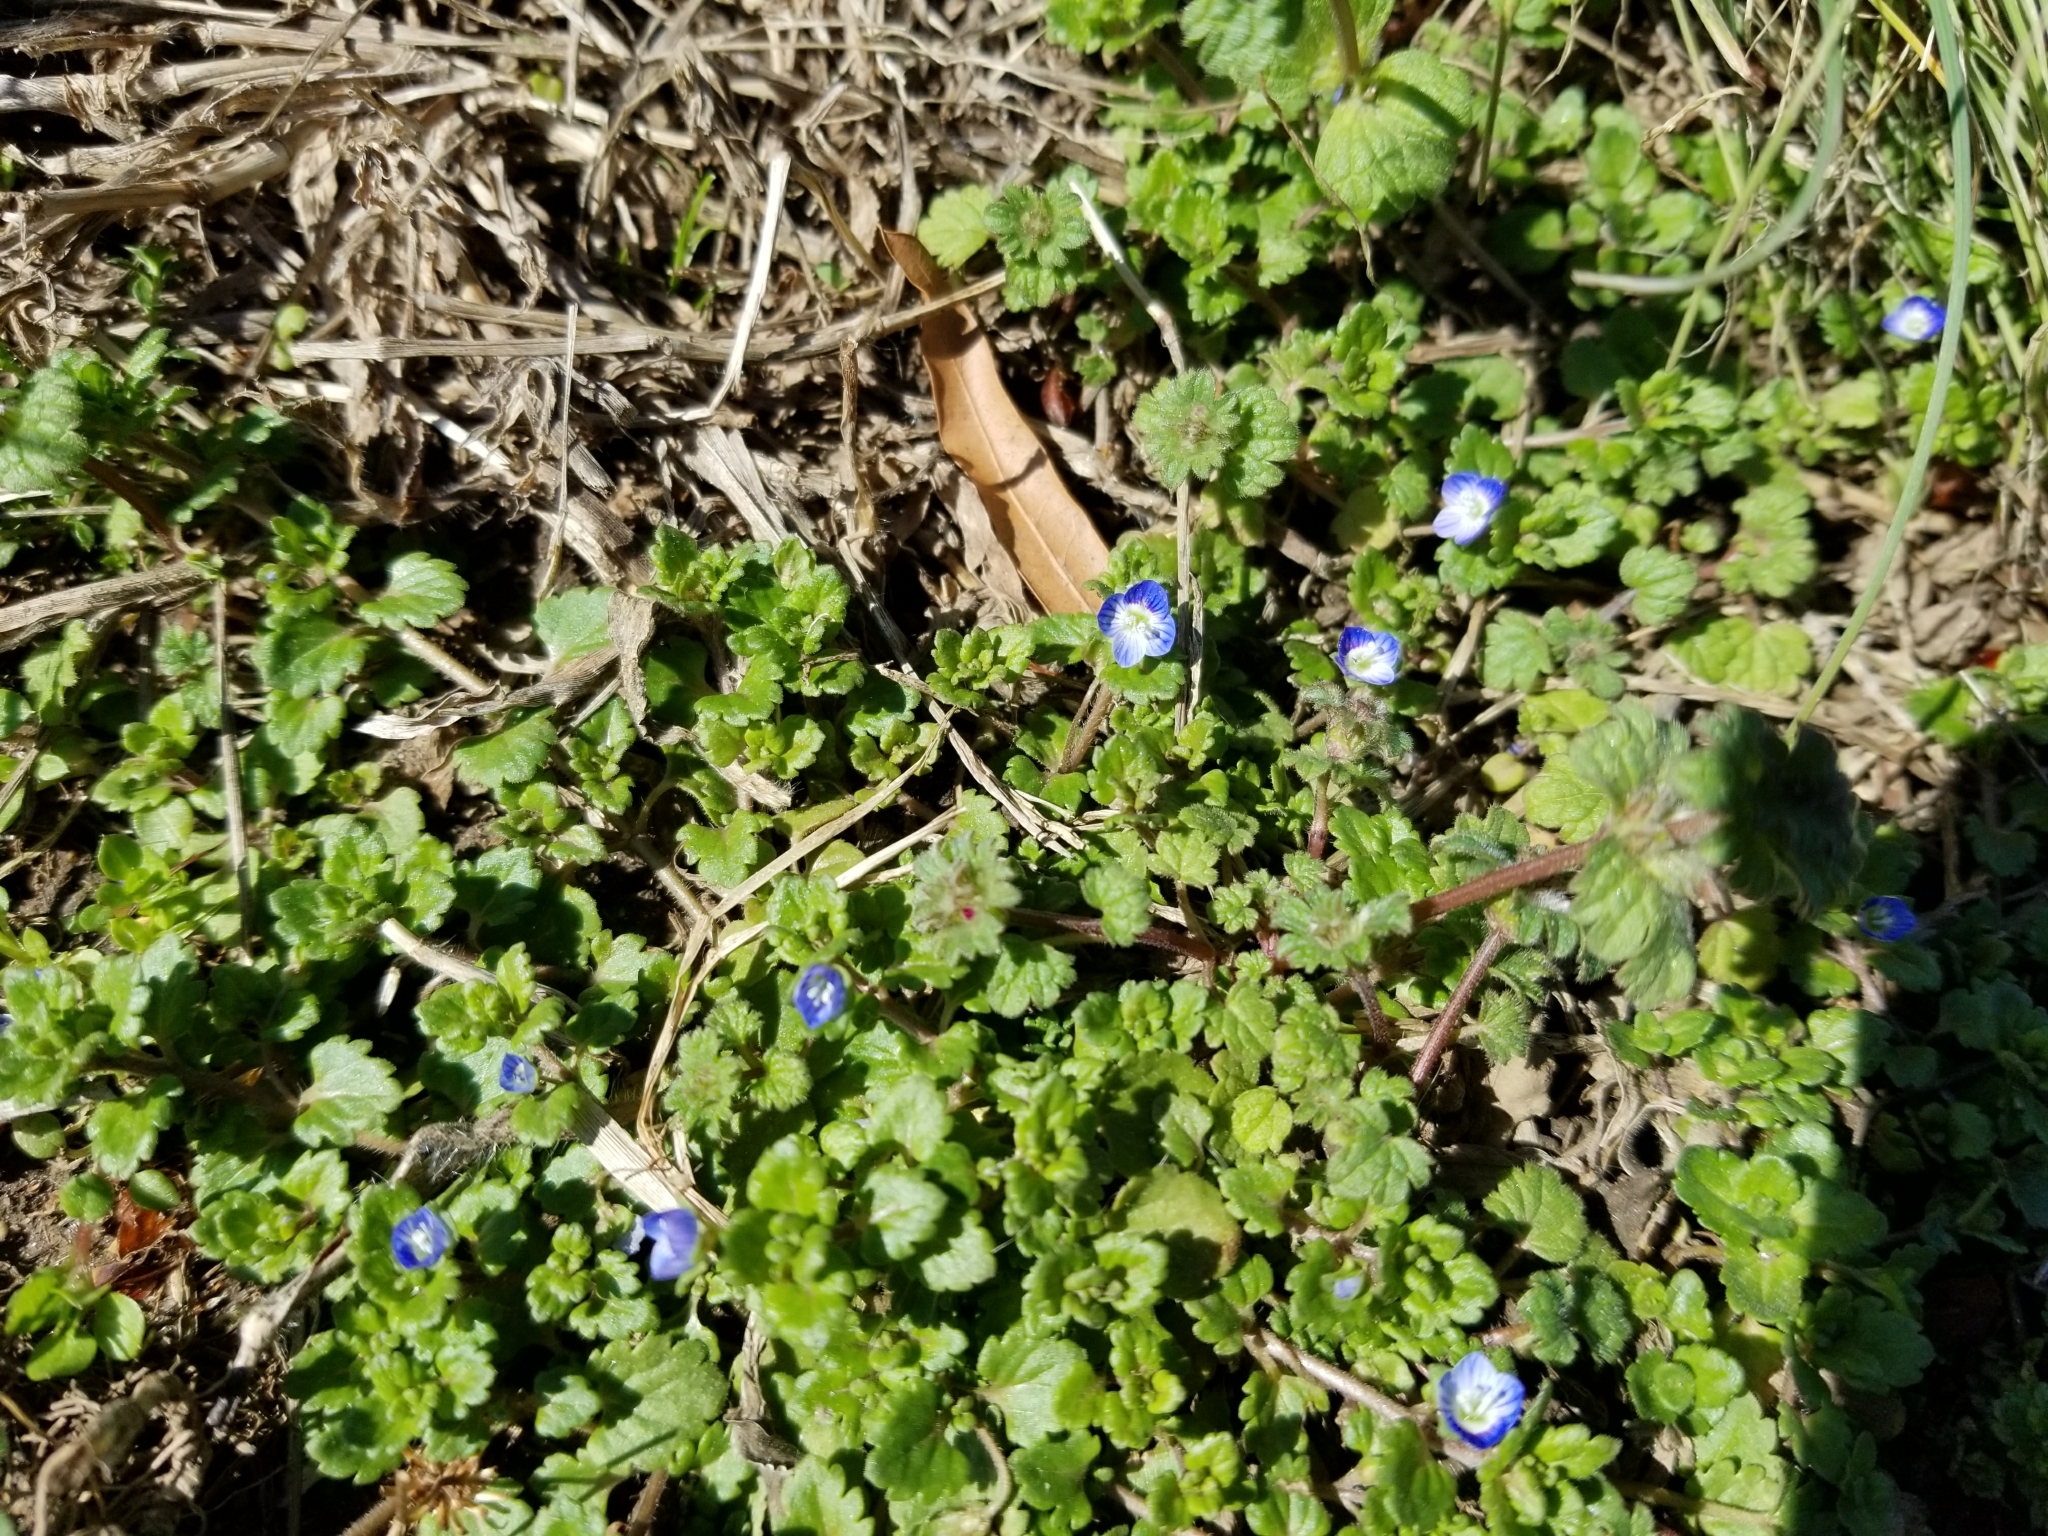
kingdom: Plantae
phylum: Tracheophyta
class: Magnoliopsida
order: Lamiales
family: Plantaginaceae
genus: Veronica
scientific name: Veronica persica
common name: Common field-speedwell
